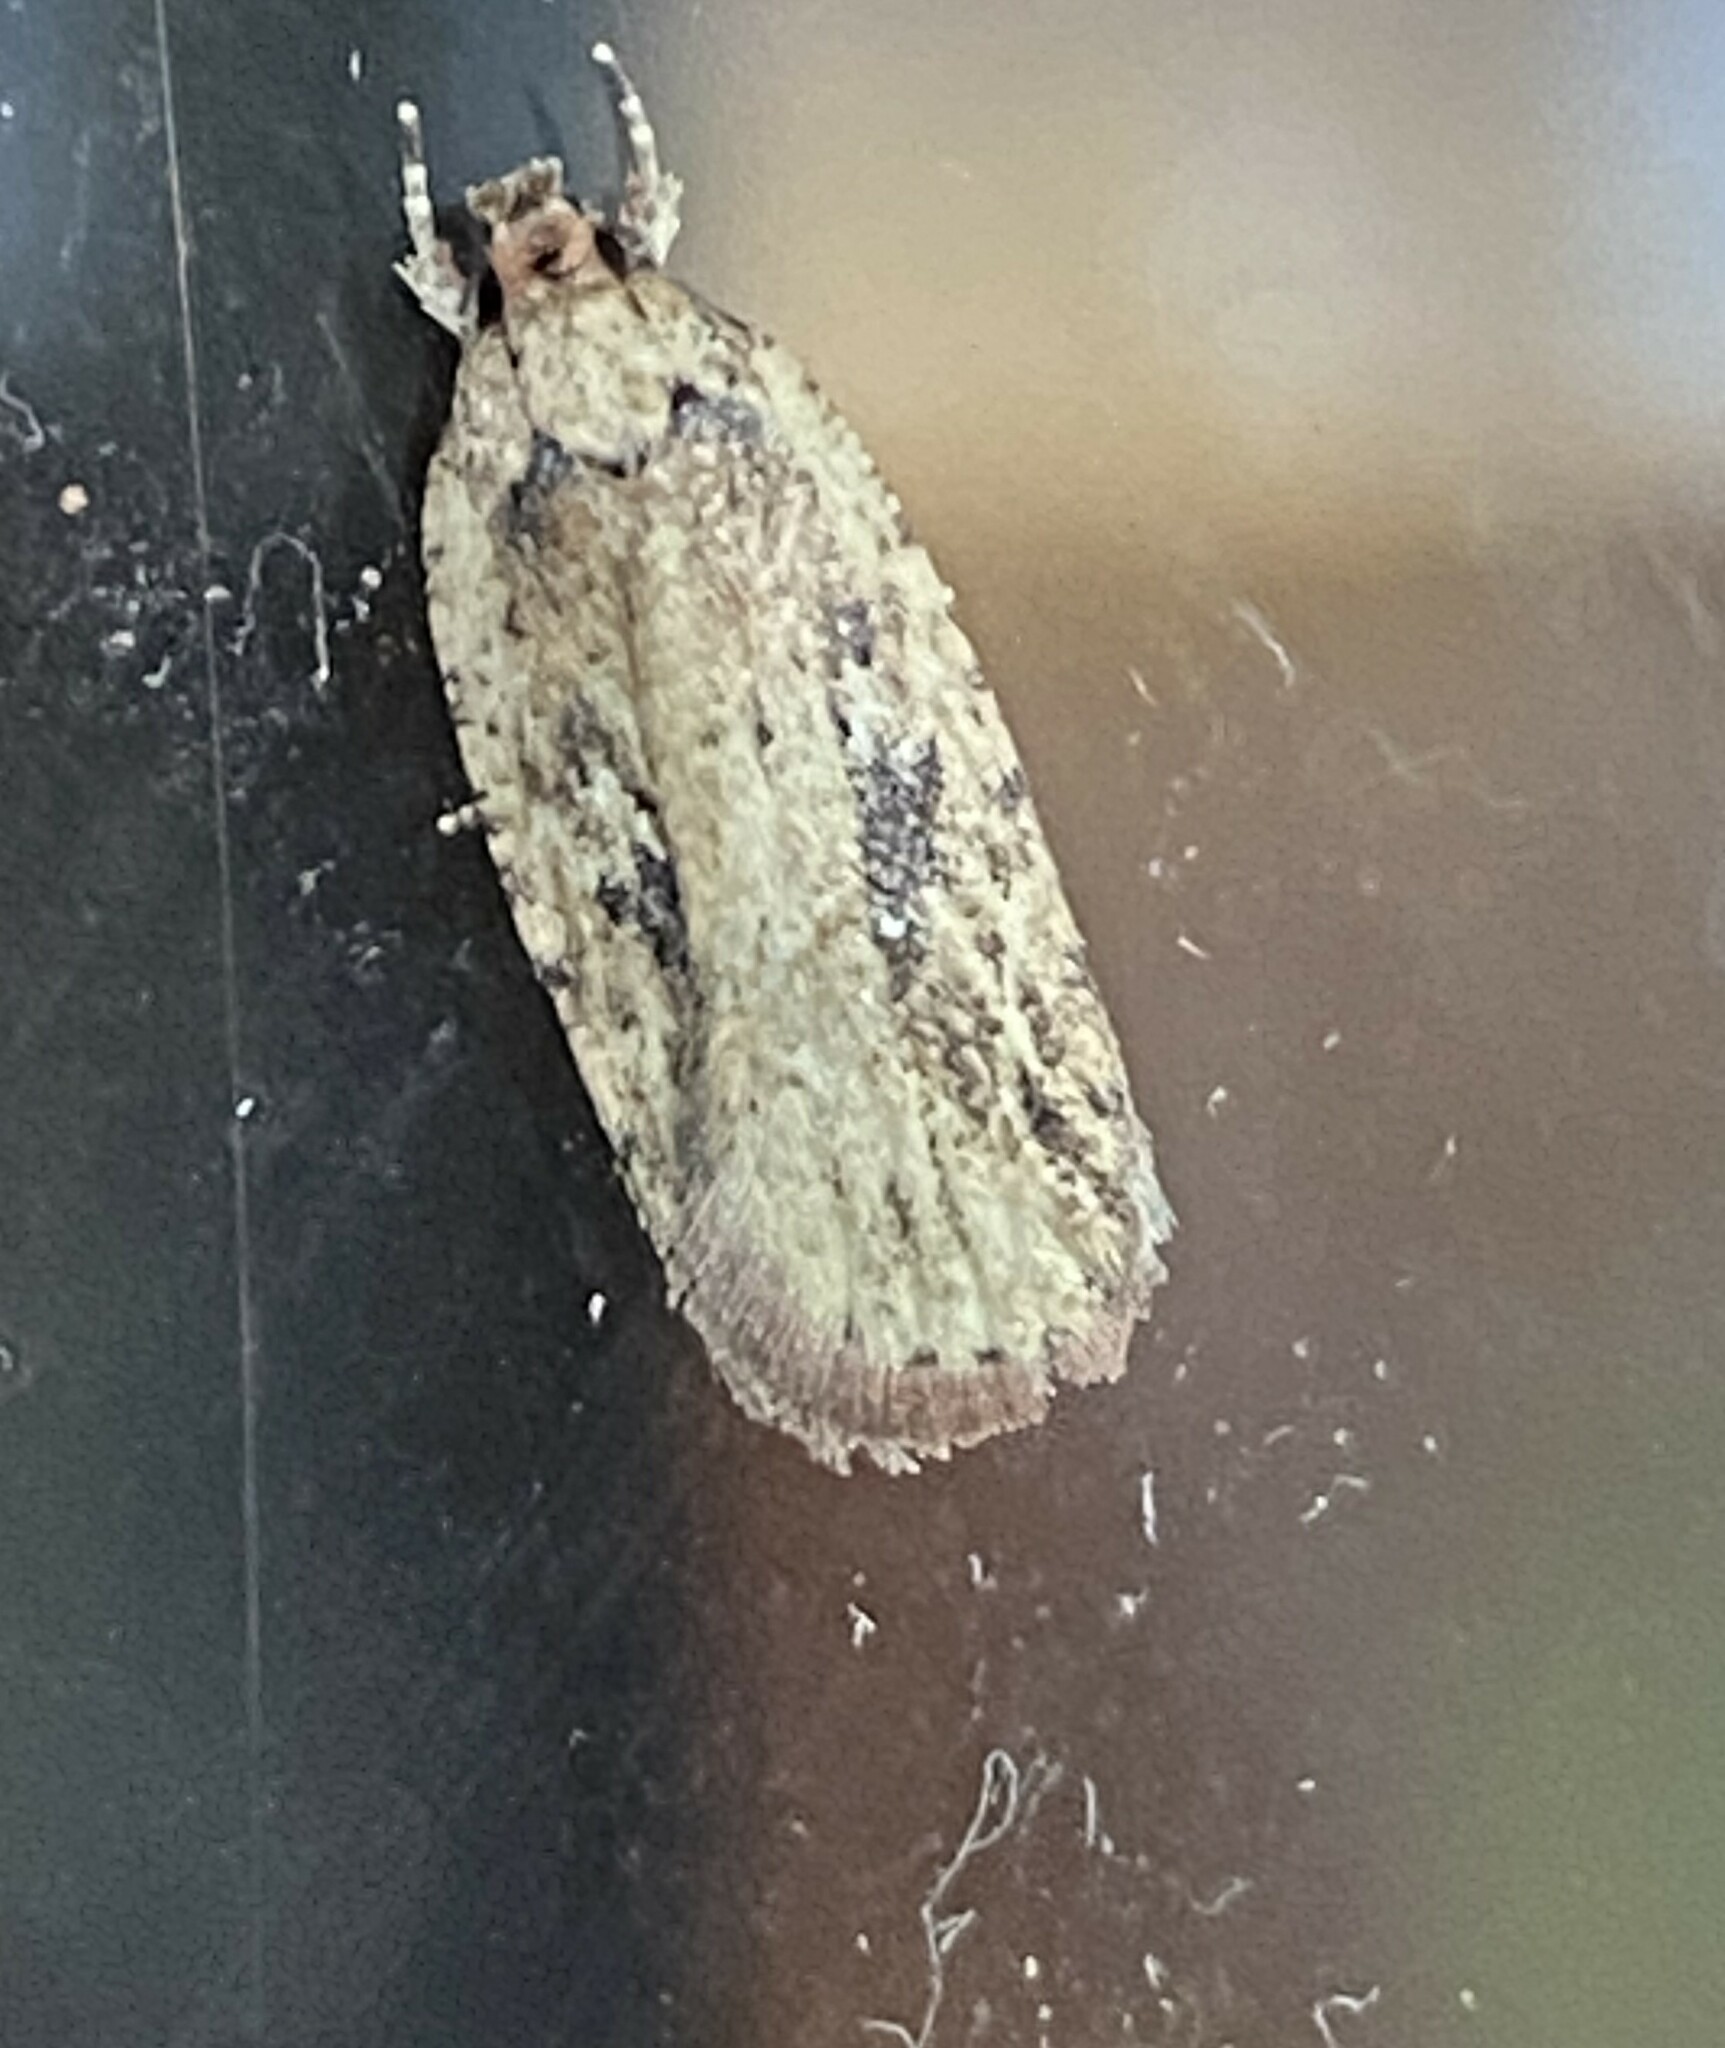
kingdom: Animalia
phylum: Arthropoda
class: Insecta
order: Lepidoptera
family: Depressariidae
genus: Agonopterix
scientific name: Agonopterix pulvipennella
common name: Goldenrod leafffolder
